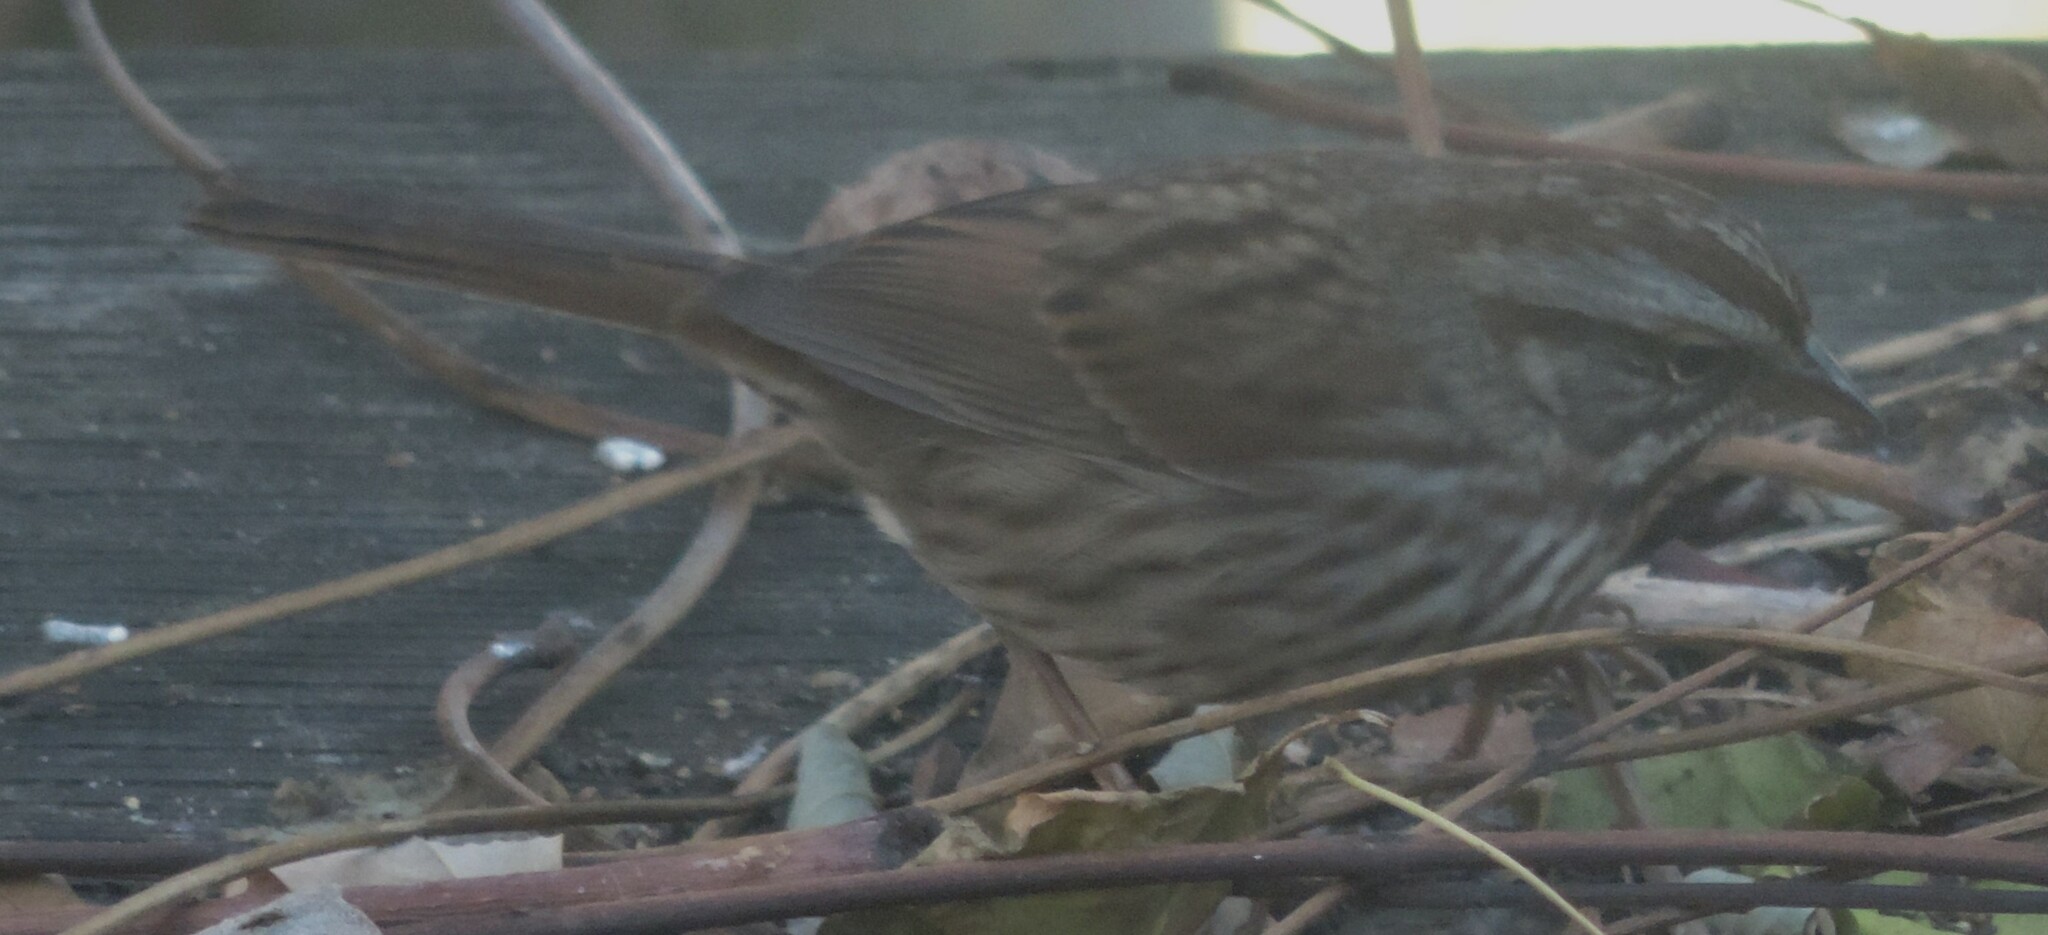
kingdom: Animalia
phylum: Chordata
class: Aves
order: Passeriformes
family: Passerellidae
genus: Melospiza
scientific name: Melospiza melodia
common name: Song sparrow
